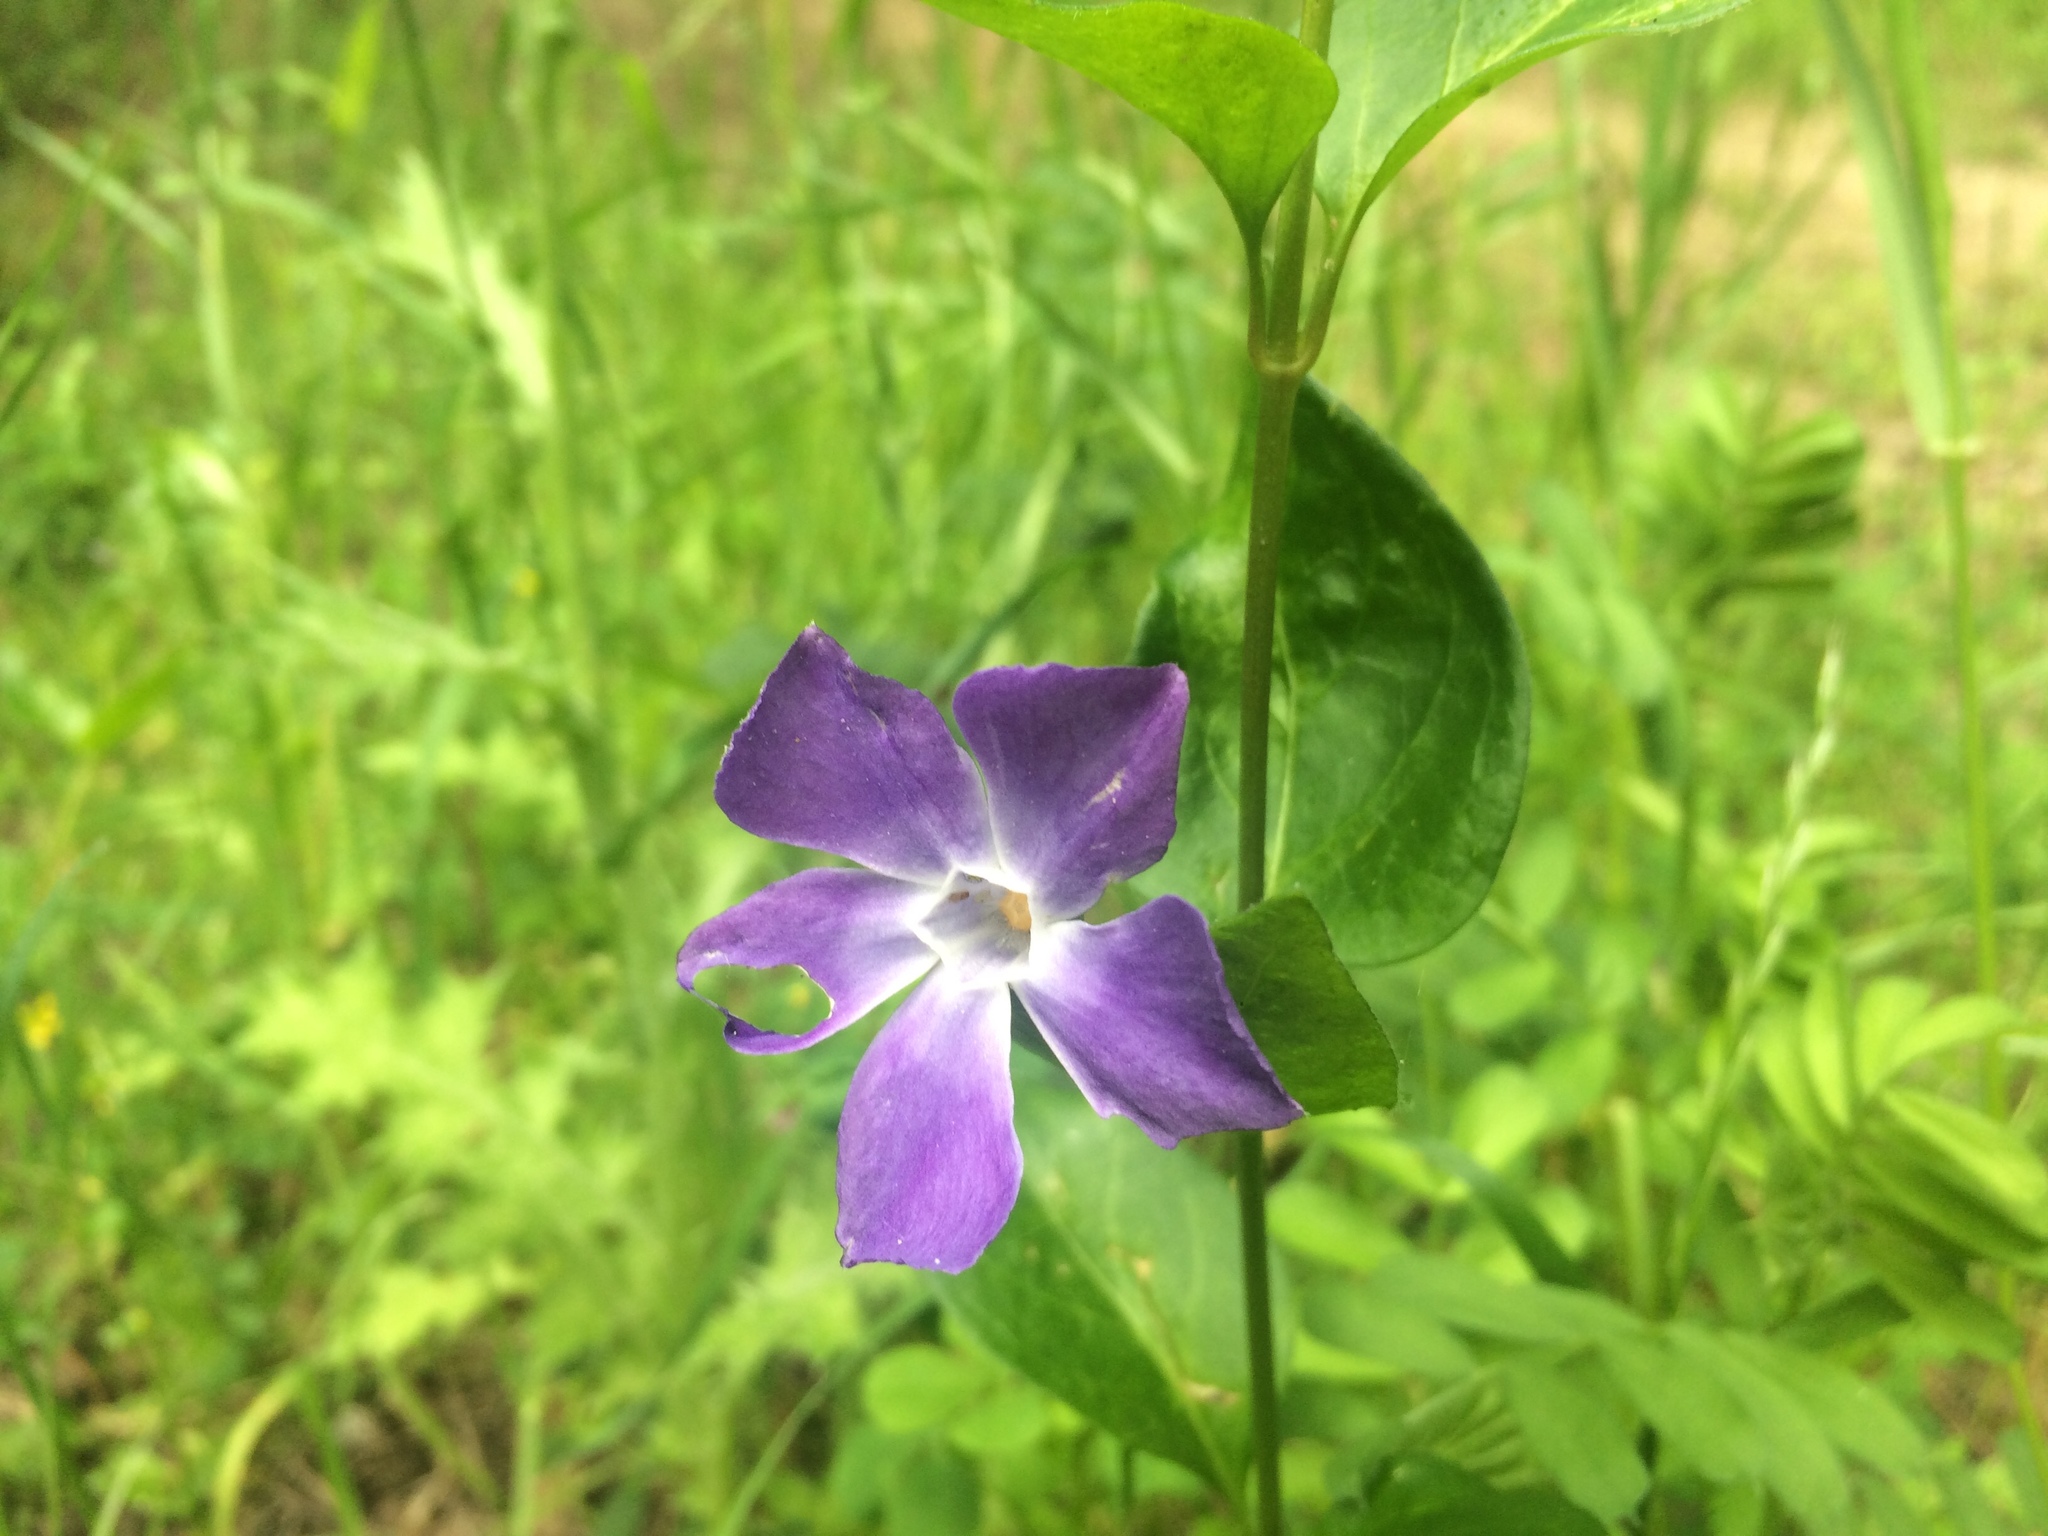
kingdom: Plantae
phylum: Tracheophyta
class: Magnoliopsida
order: Gentianales
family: Apocynaceae
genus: Vinca
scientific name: Vinca major
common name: Greater periwinkle
